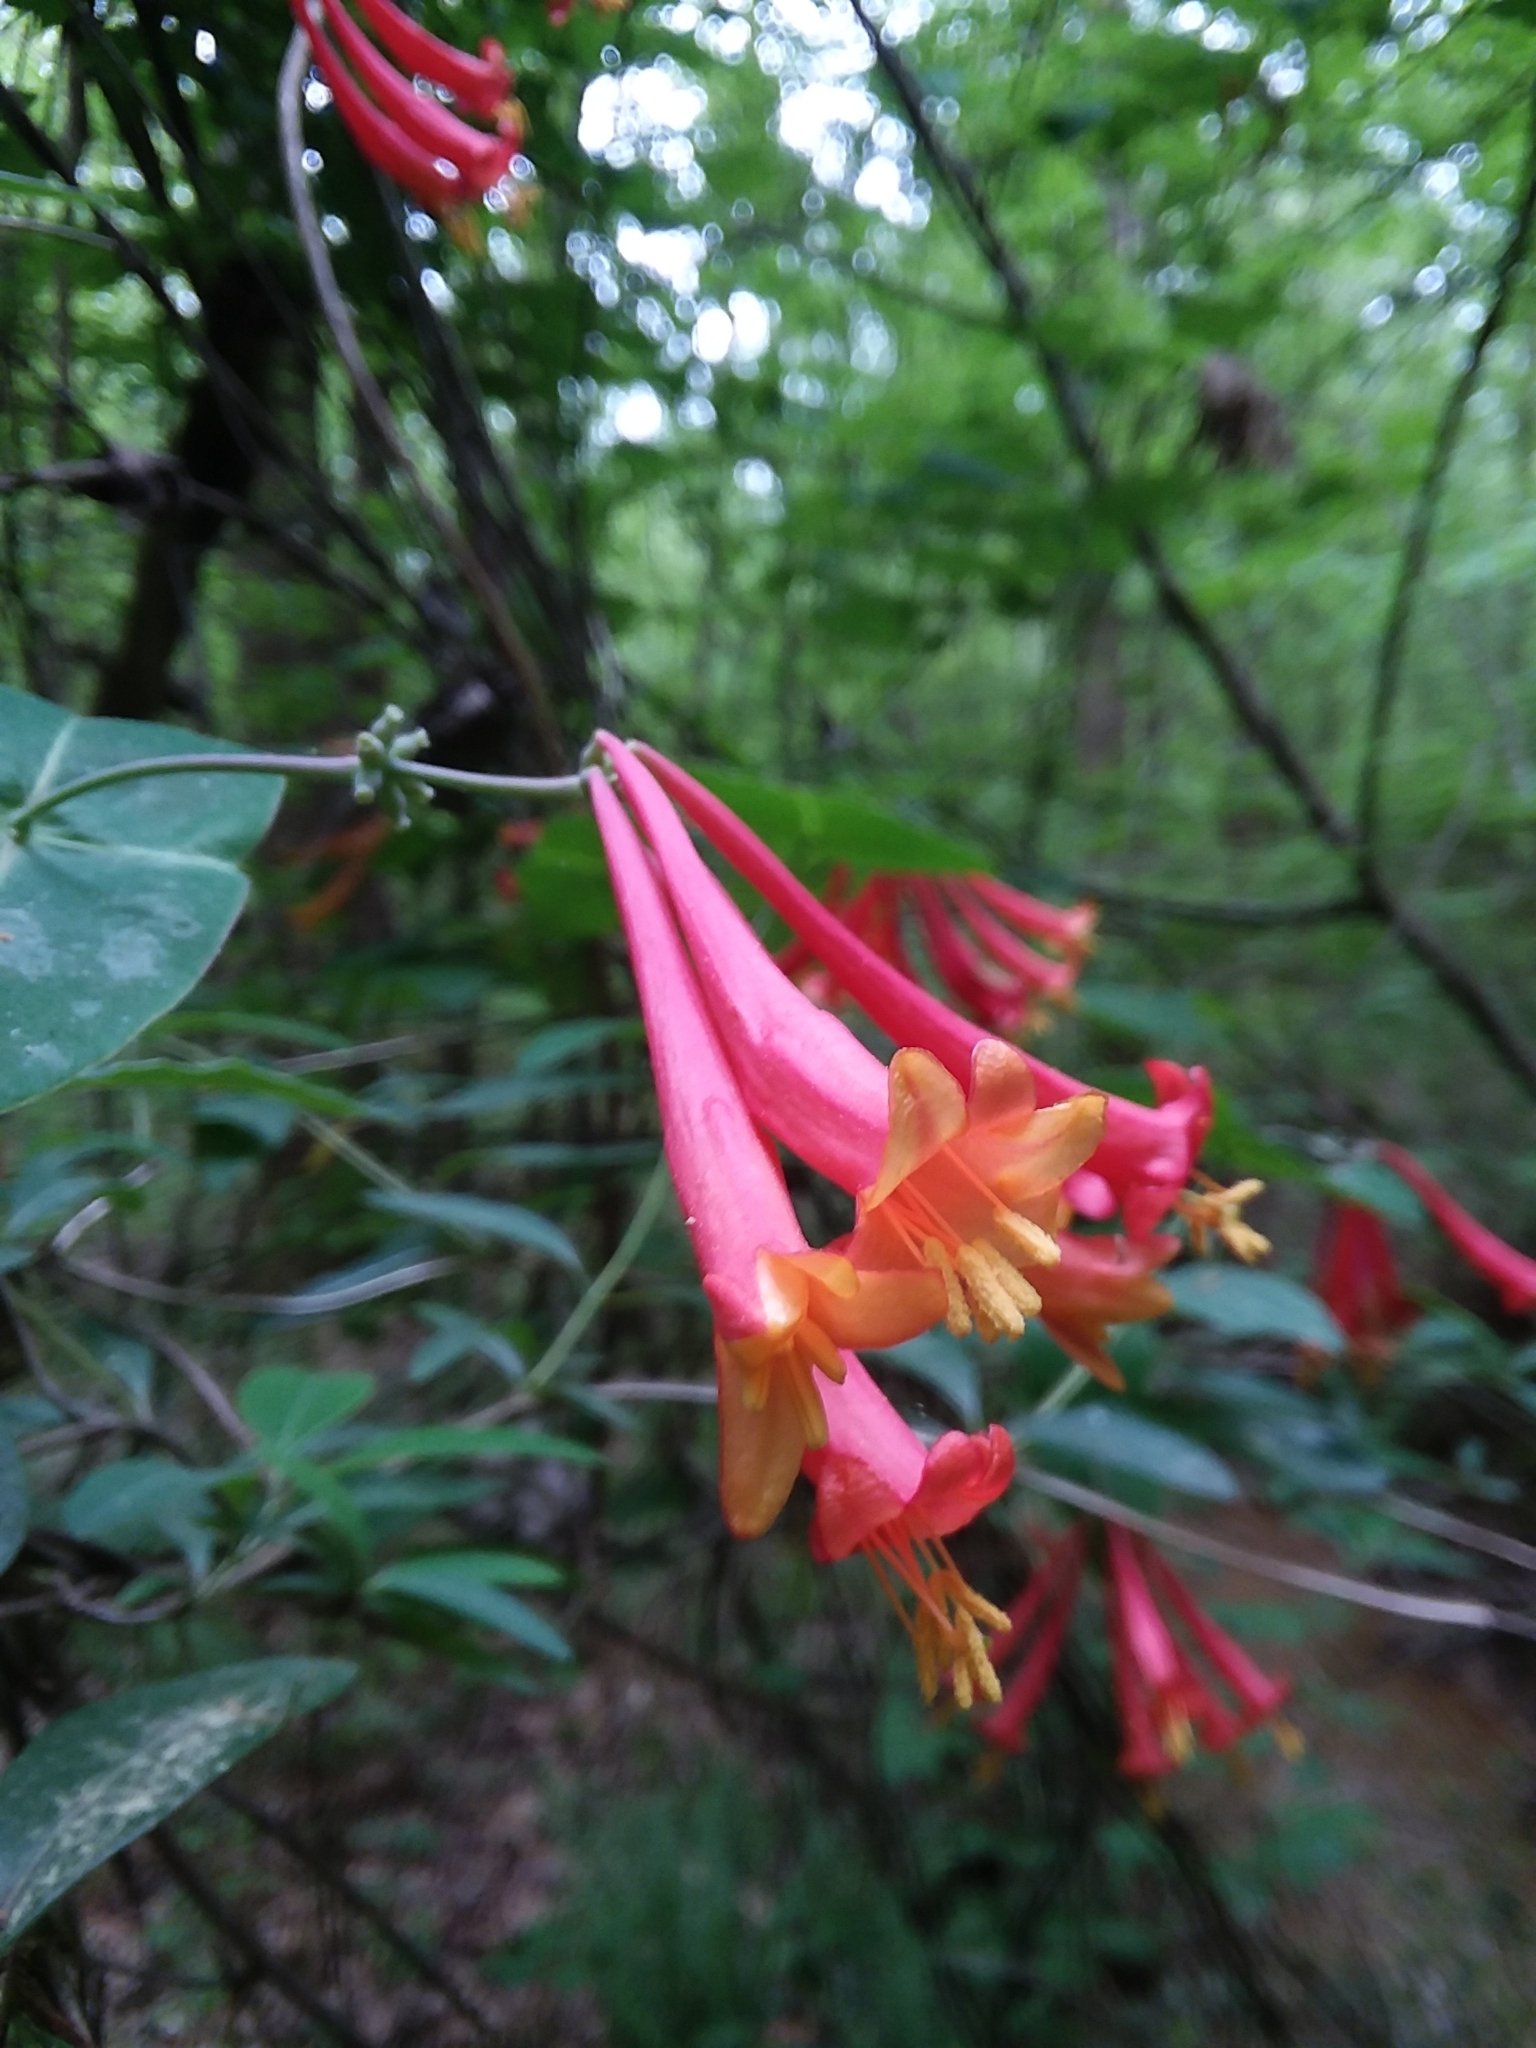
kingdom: Plantae
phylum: Tracheophyta
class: Magnoliopsida
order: Dipsacales
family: Caprifoliaceae
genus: Lonicera
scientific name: Lonicera sempervirens
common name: Coral honeysuckle
